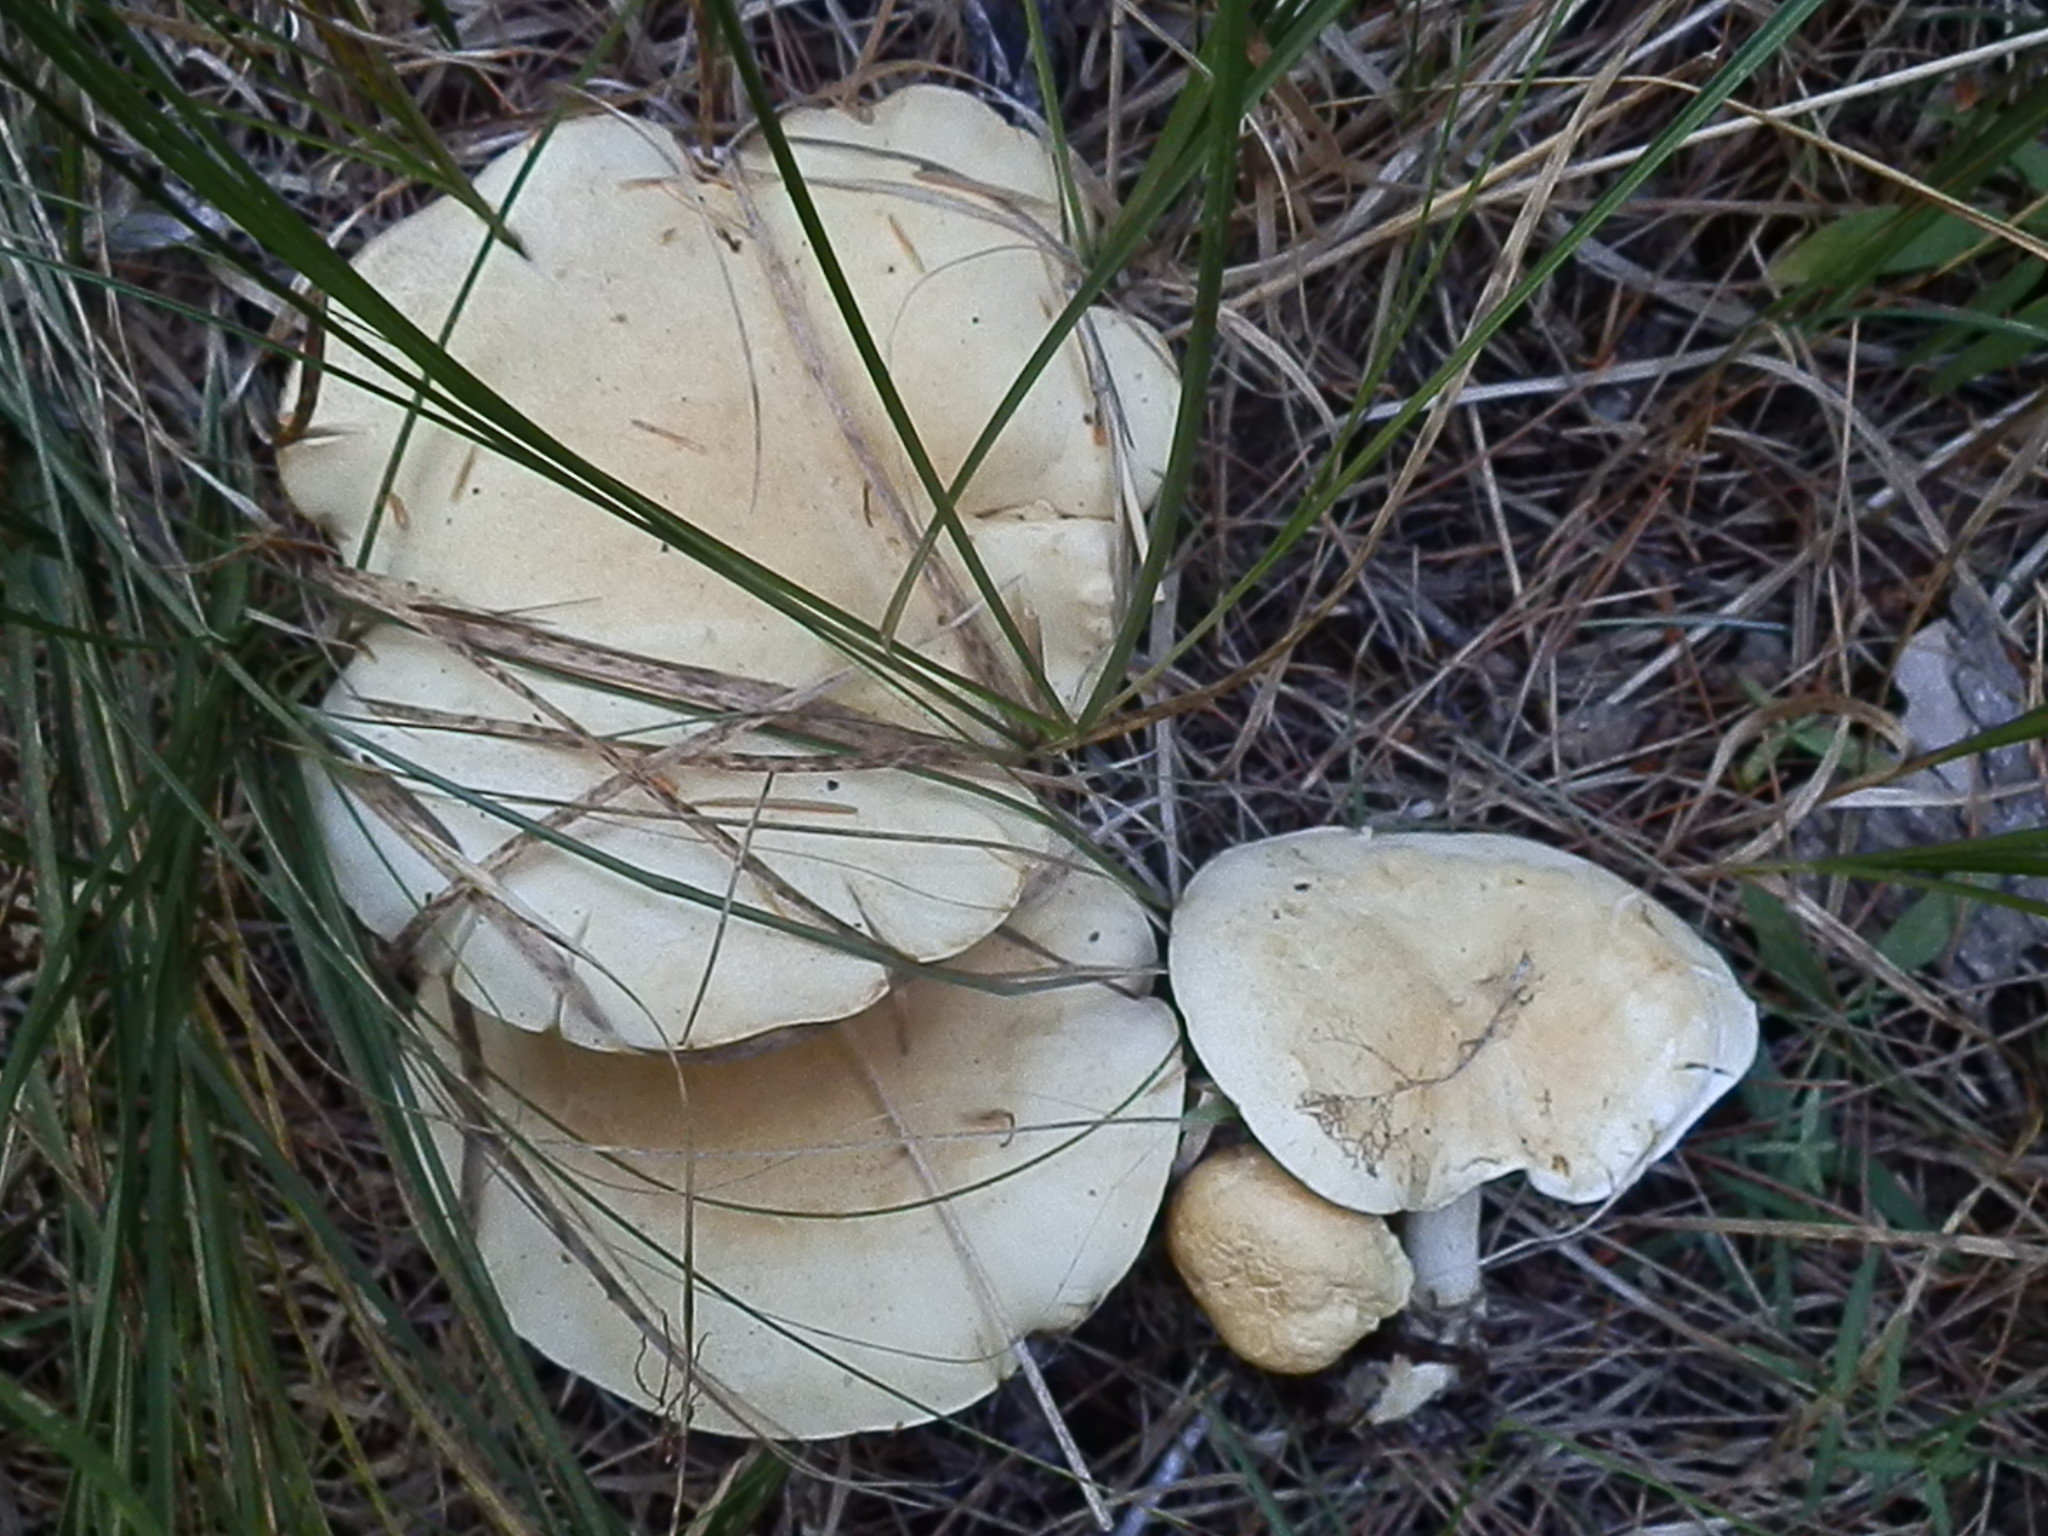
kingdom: Fungi
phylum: Basidiomycota
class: Agaricomycetes
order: Agaricales
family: Tricholomataceae
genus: Leucopaxillus
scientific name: Leucopaxillus paradoxus
